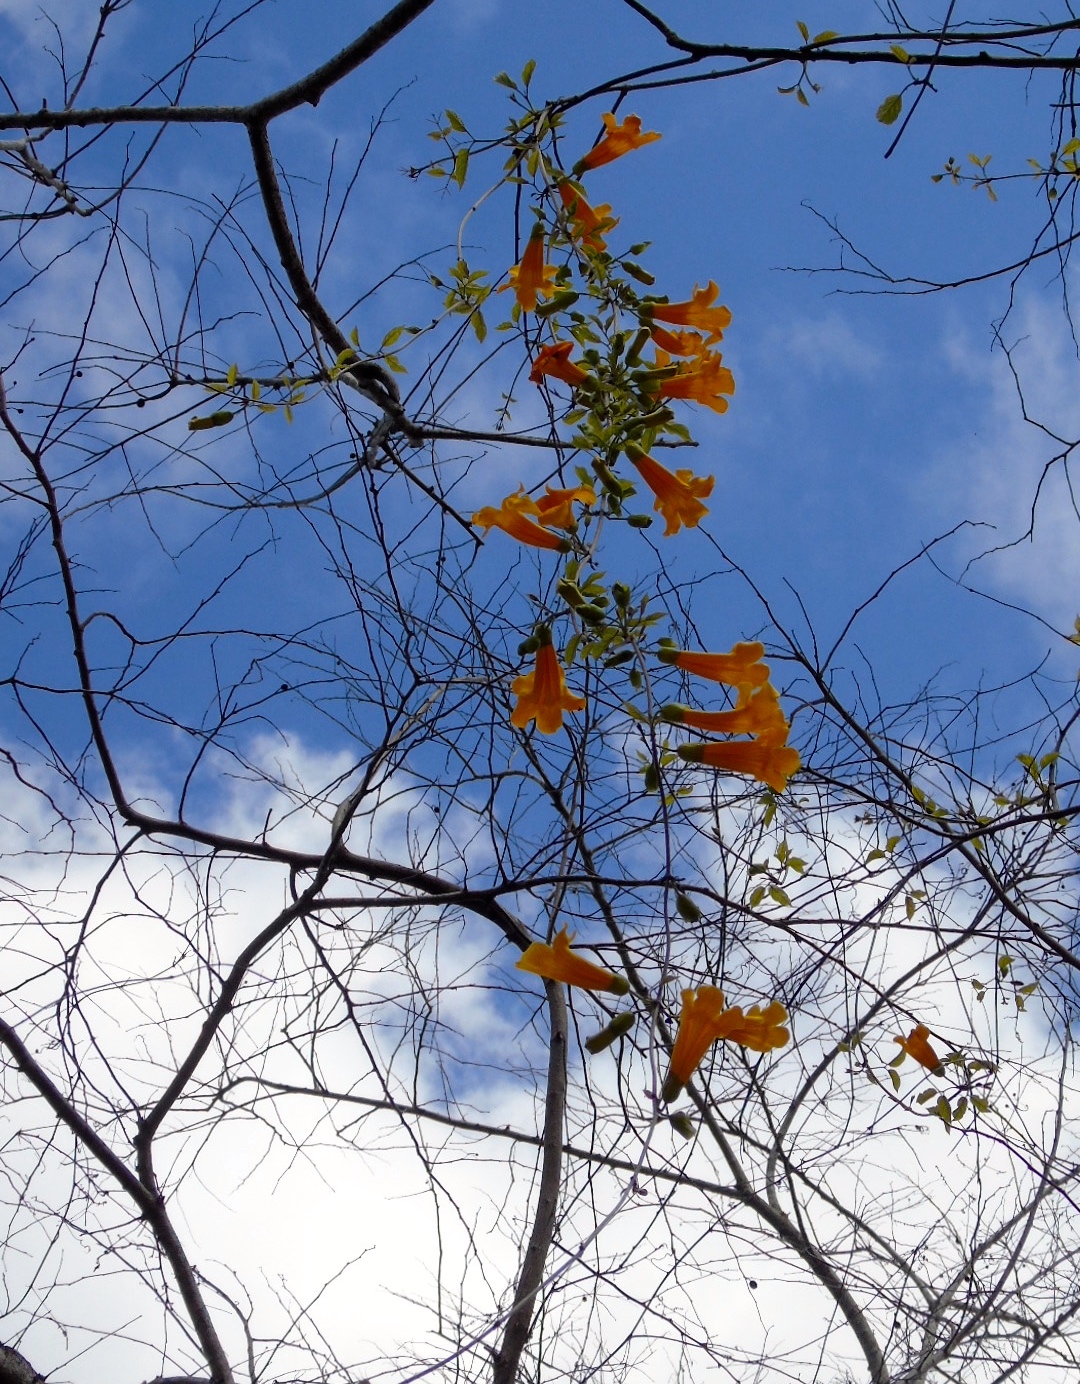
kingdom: Plantae
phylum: Tracheophyta
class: Magnoliopsida
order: Lamiales
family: Bignoniaceae
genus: Adenocalymma
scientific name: Adenocalymma inundatum
